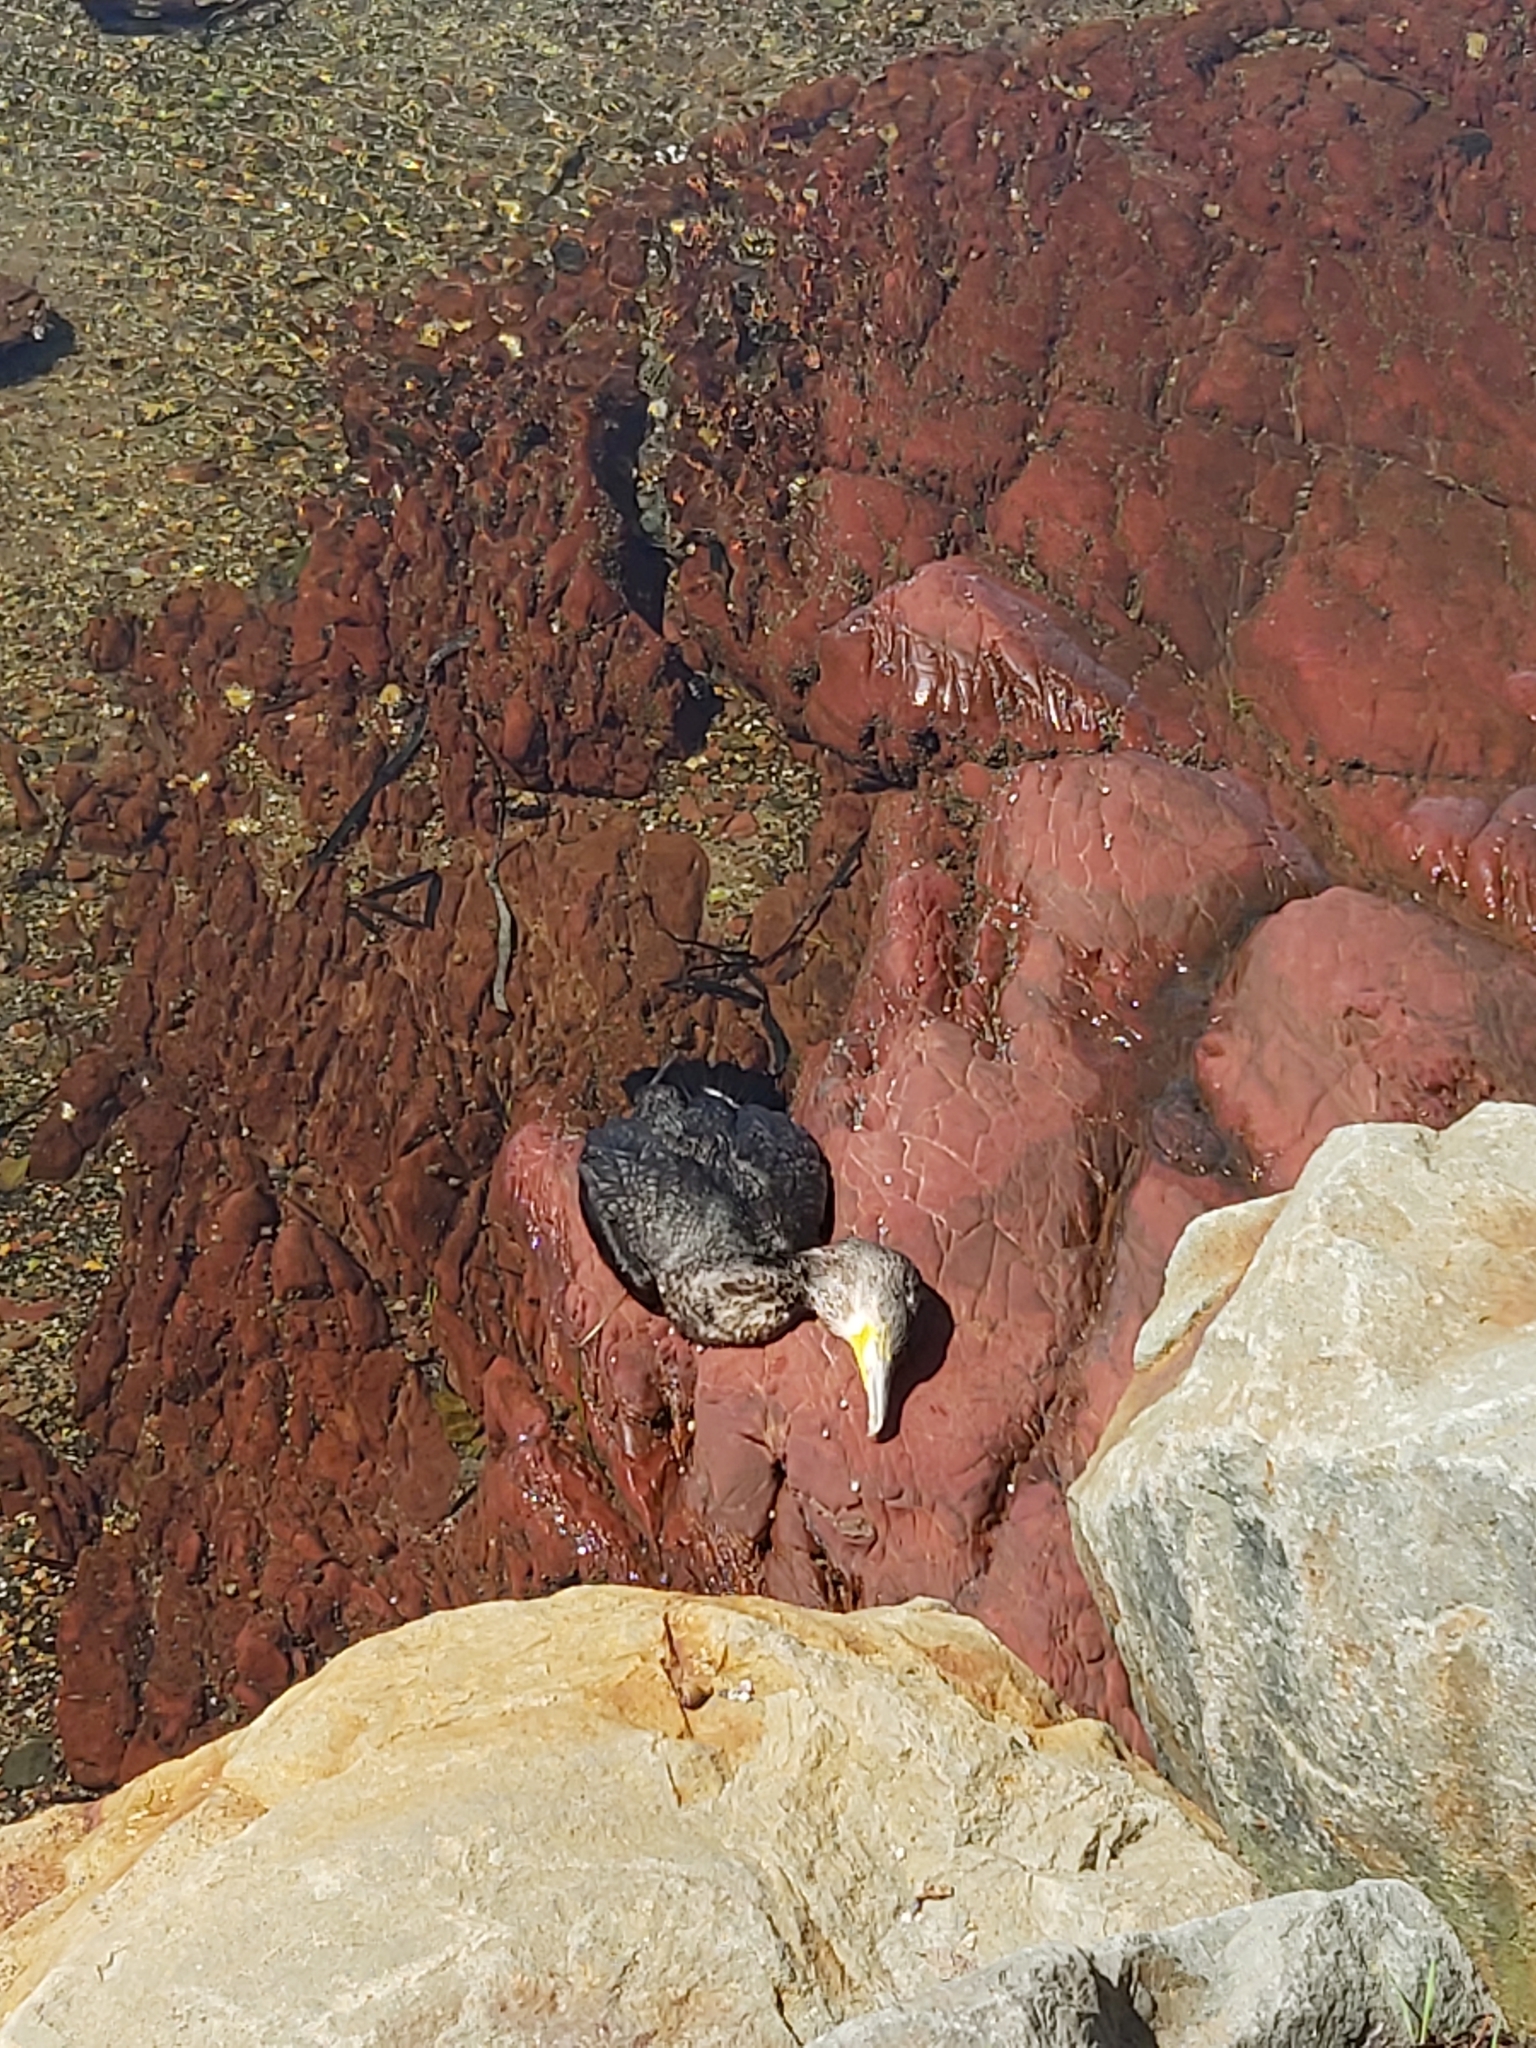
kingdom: Animalia
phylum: Chordata
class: Aves
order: Suliformes
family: Phalacrocoracidae
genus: Phalacrocorax
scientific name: Phalacrocorax carbo
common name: Great cormorant
